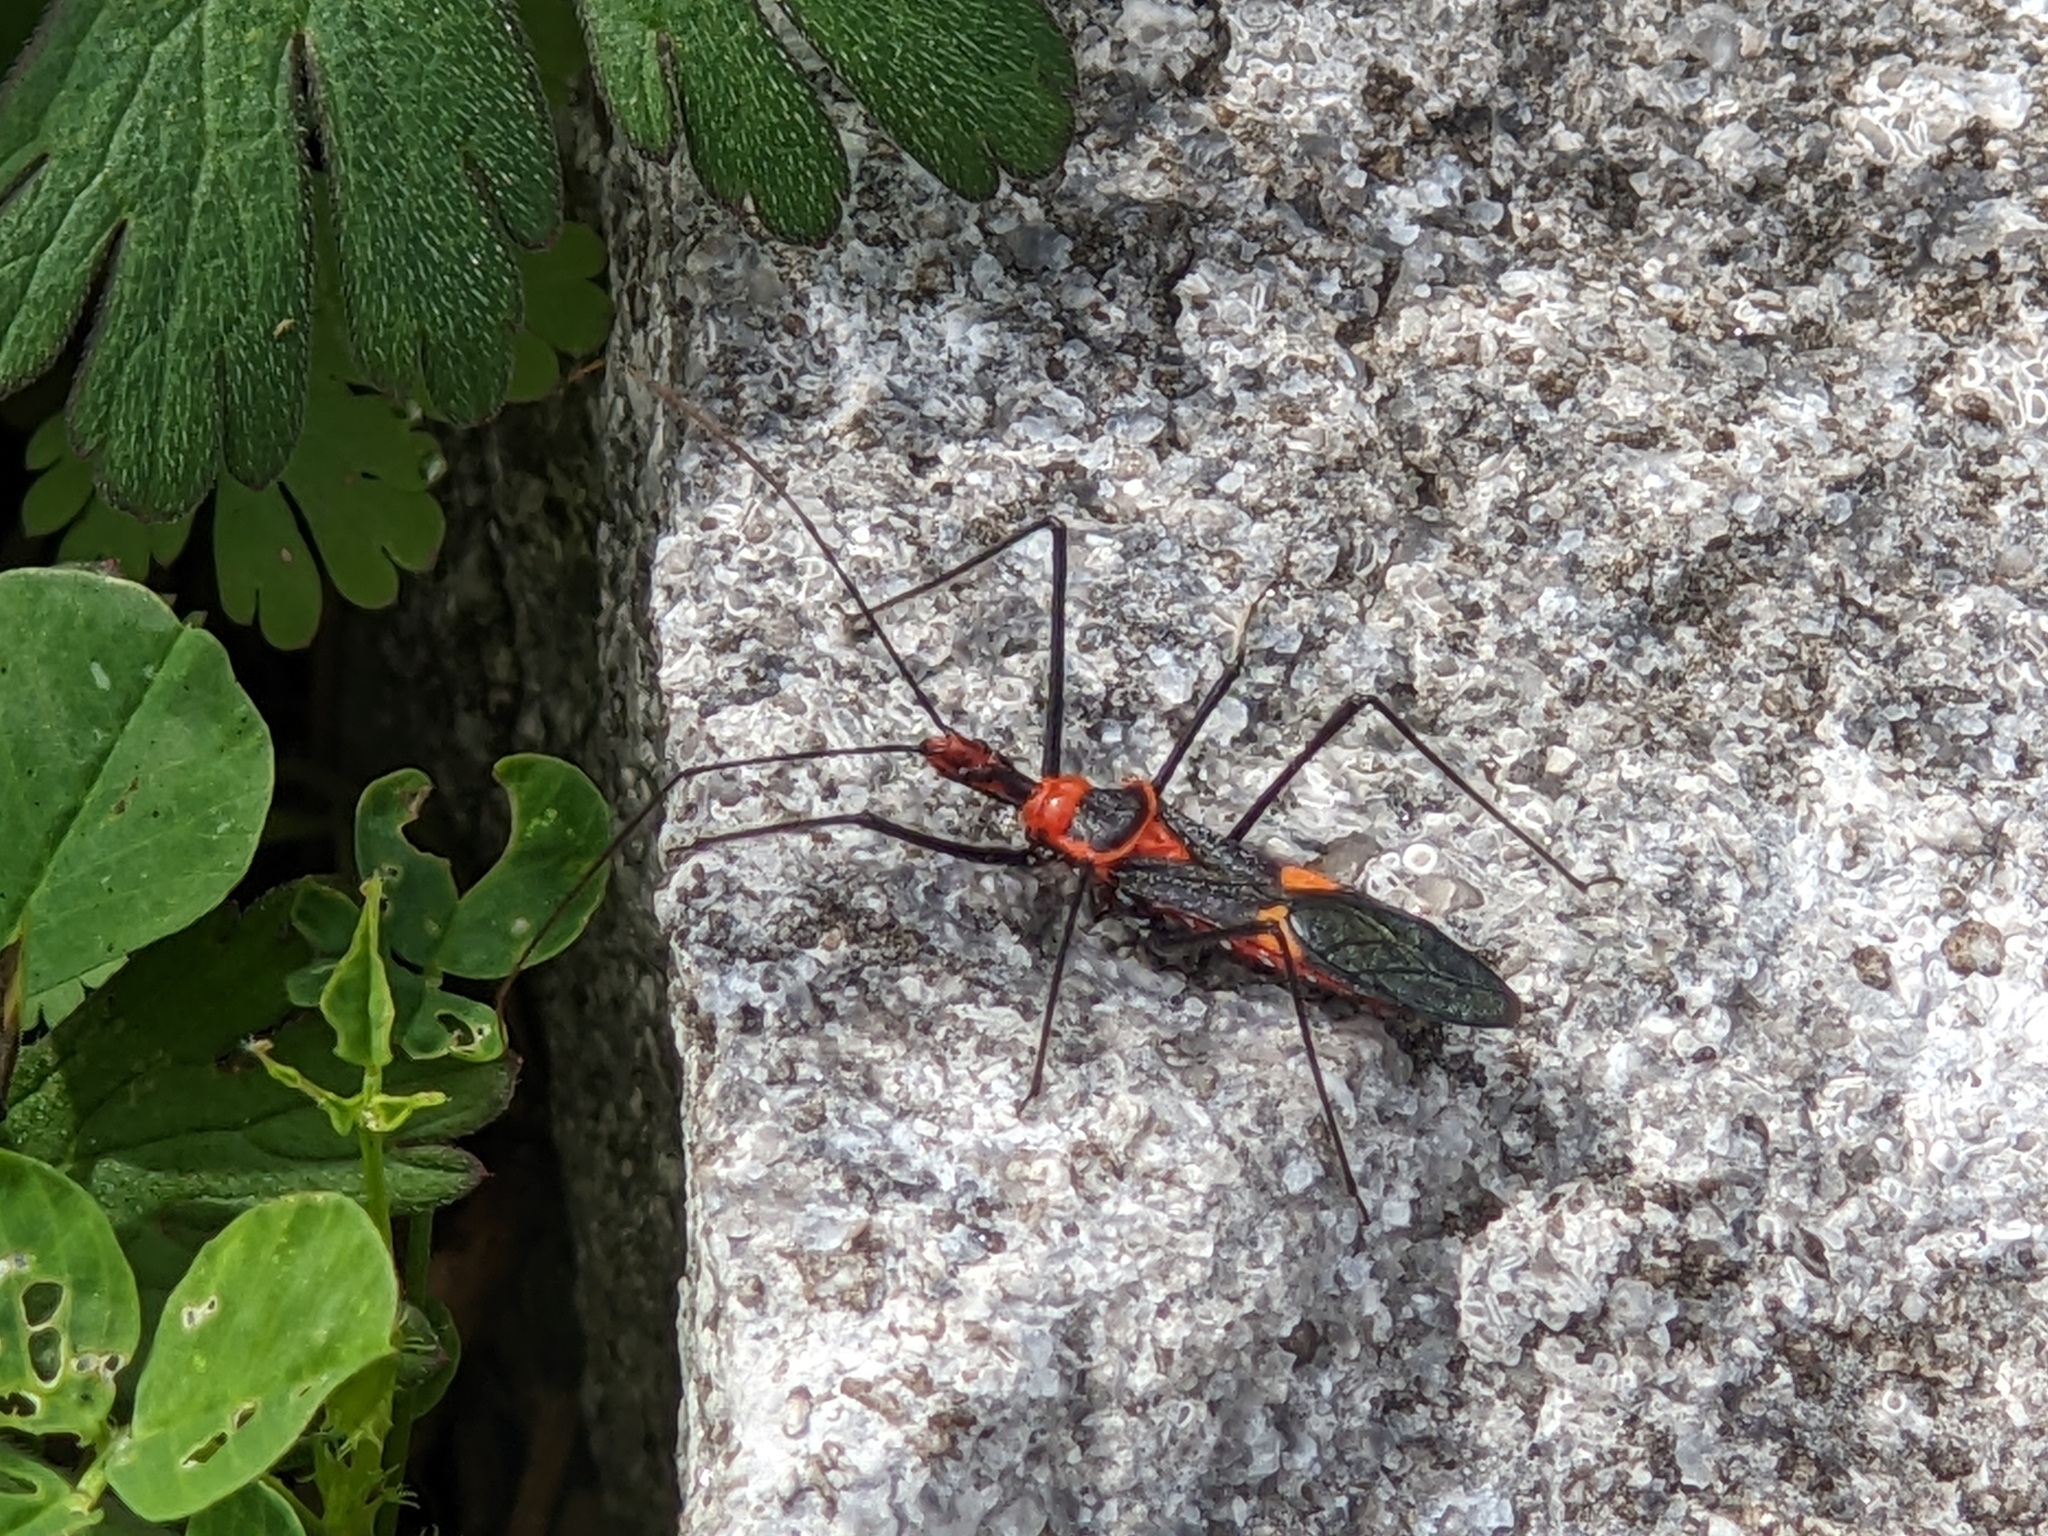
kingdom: Animalia
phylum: Arthropoda
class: Insecta
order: Hemiptera
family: Reduviidae
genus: Zelus
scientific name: Zelus longipes
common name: Milkweed assassin bug
